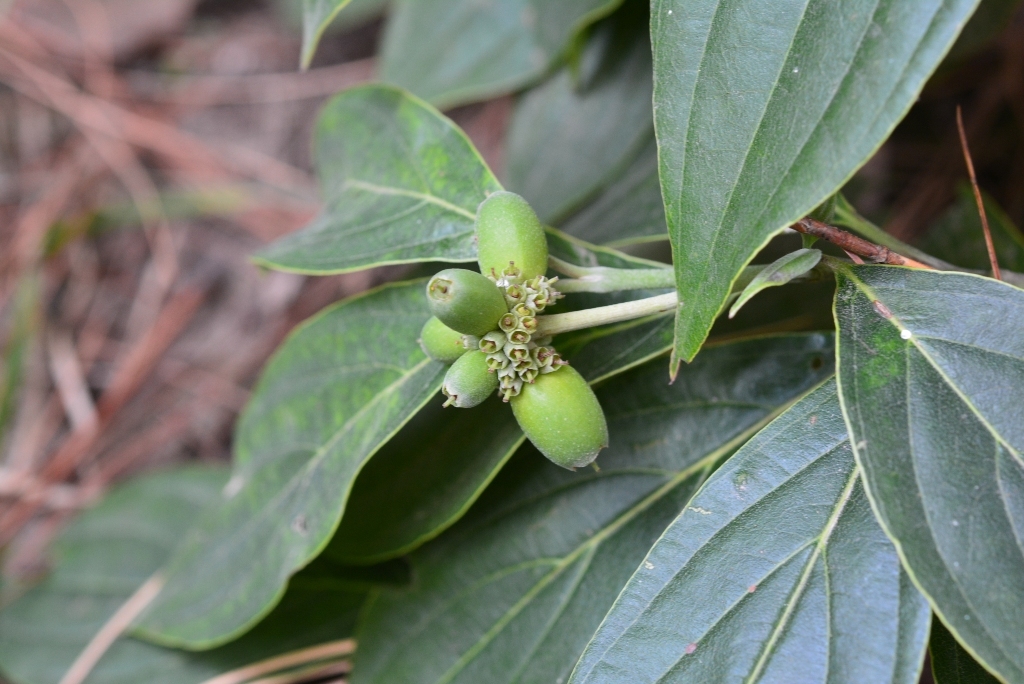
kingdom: Plantae
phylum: Tracheophyta
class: Magnoliopsida
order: Cornales
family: Cornaceae
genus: Cornus
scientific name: Cornus disciflora
